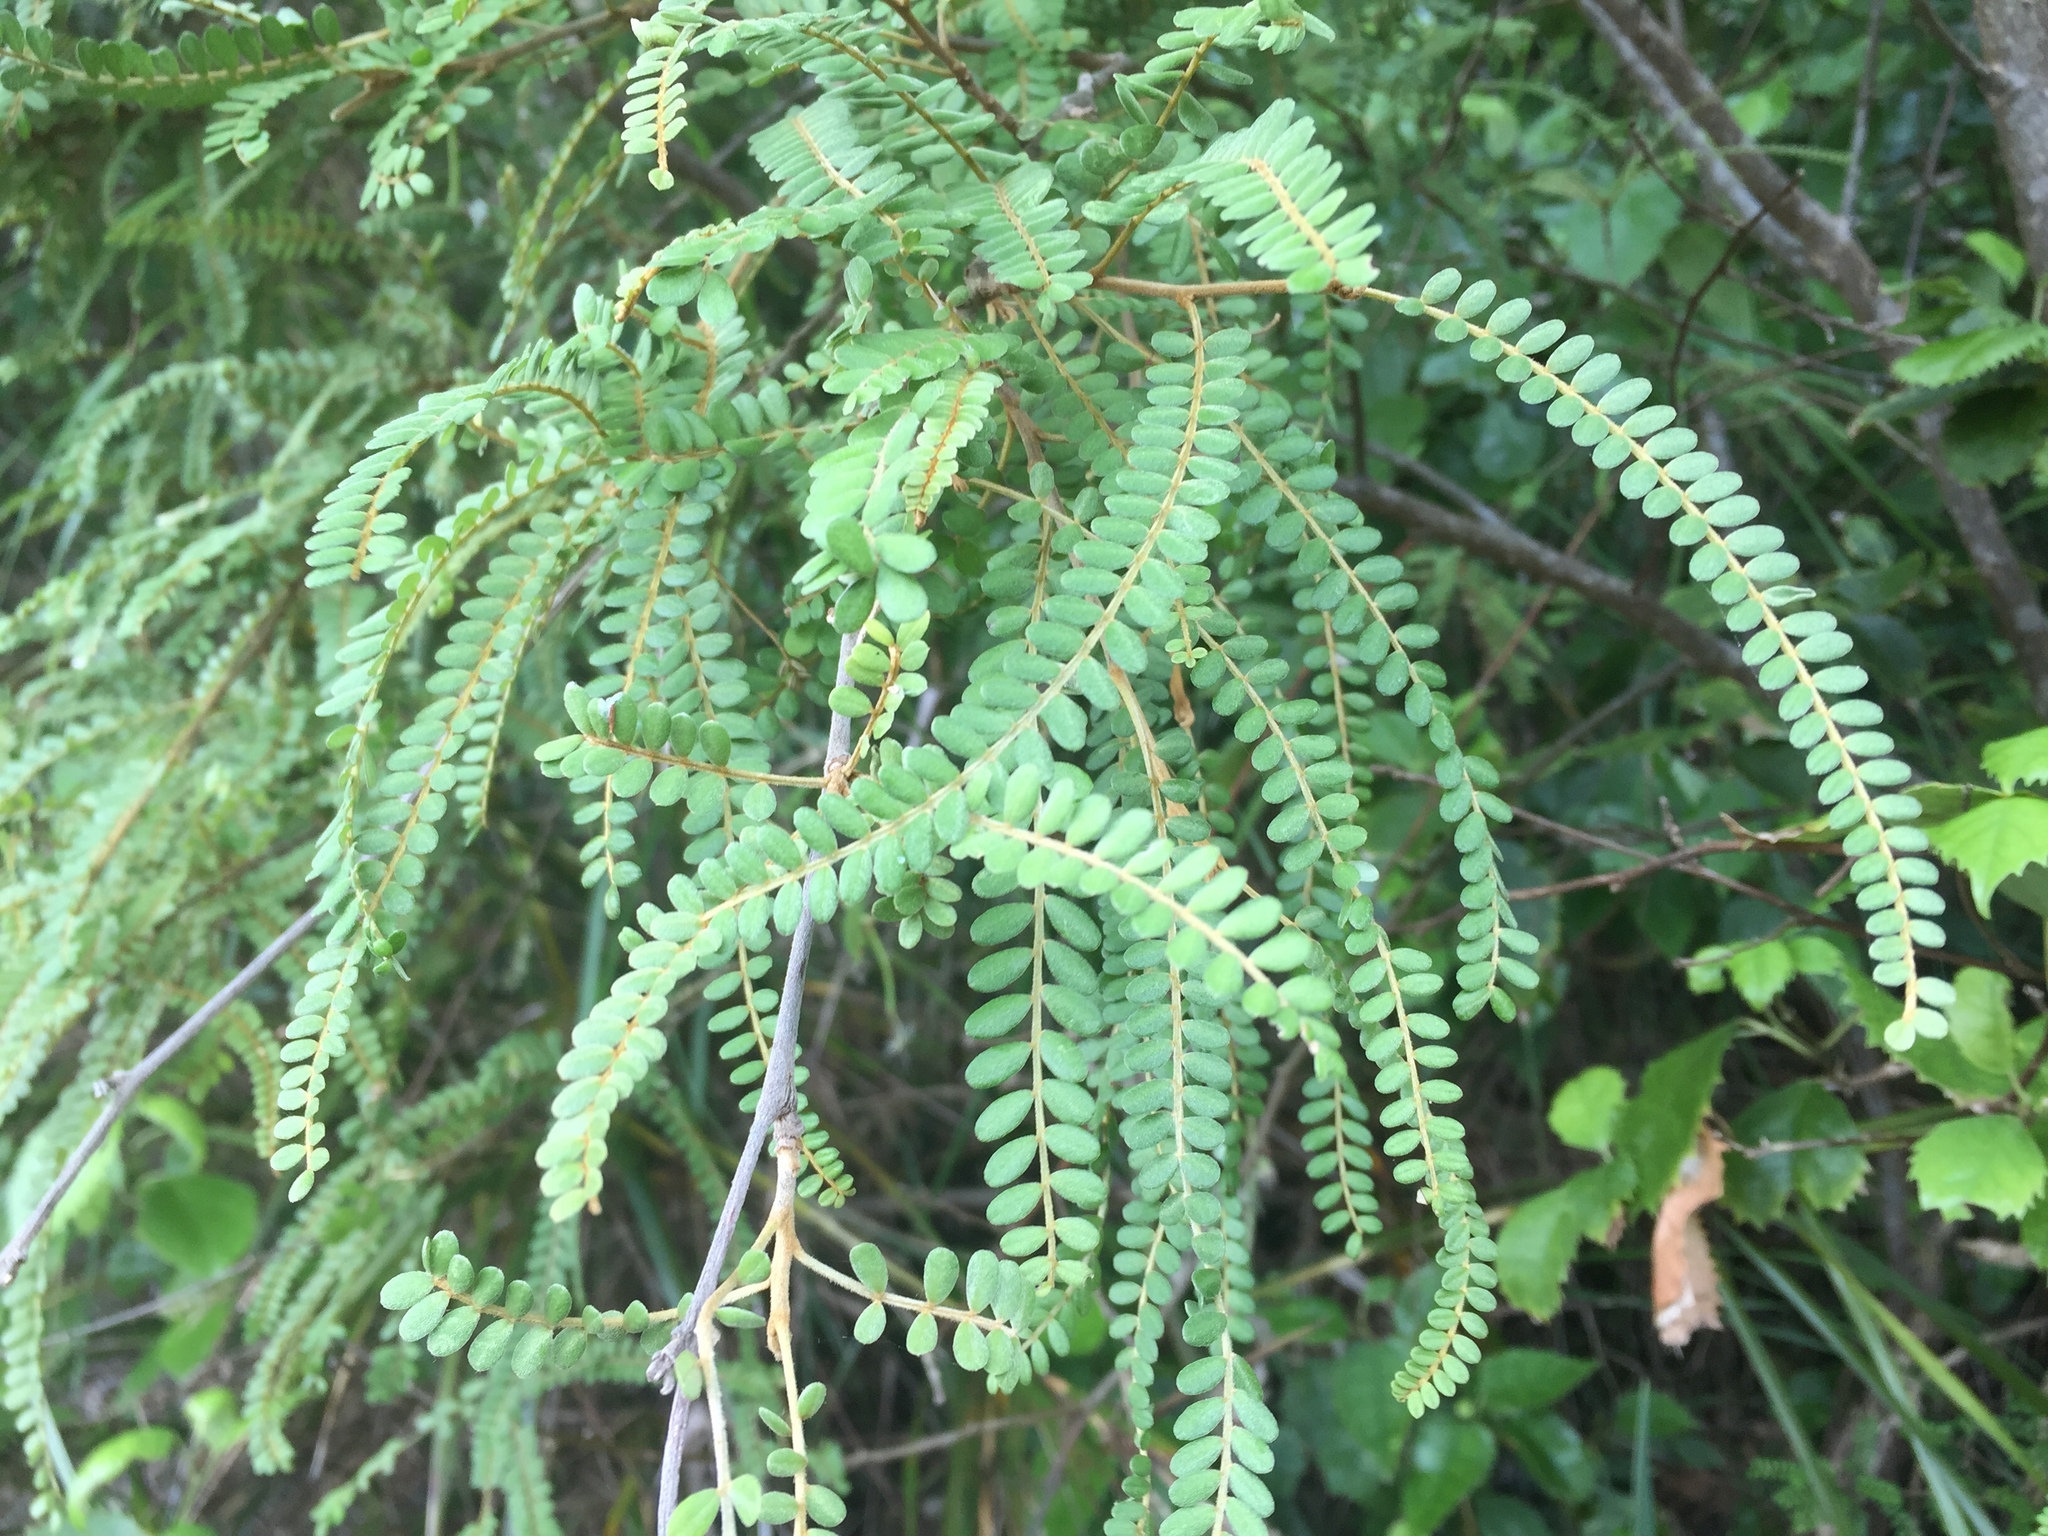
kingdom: Plantae
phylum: Tracheophyta
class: Magnoliopsida
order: Fabales
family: Fabaceae
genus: Sophora
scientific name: Sophora chathamica
